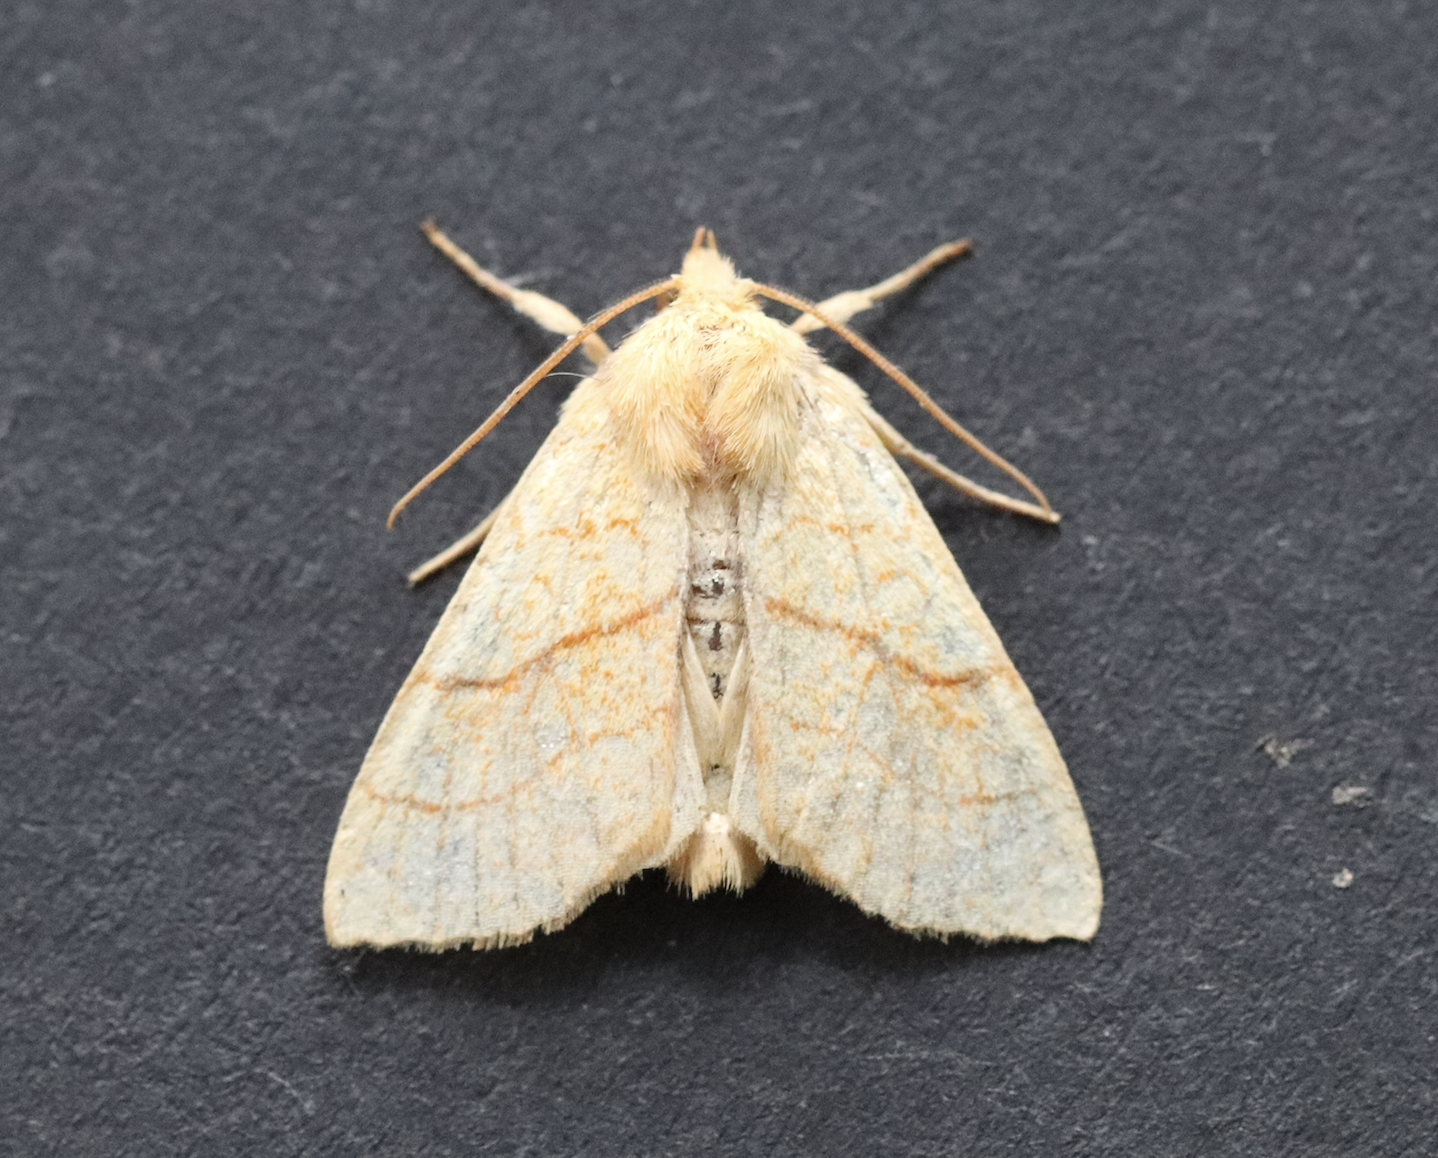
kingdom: Animalia
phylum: Arthropoda
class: Insecta
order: Lepidoptera
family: Noctuidae
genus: Tiliacea
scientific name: Tiliacea citrago
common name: Orange sallow
